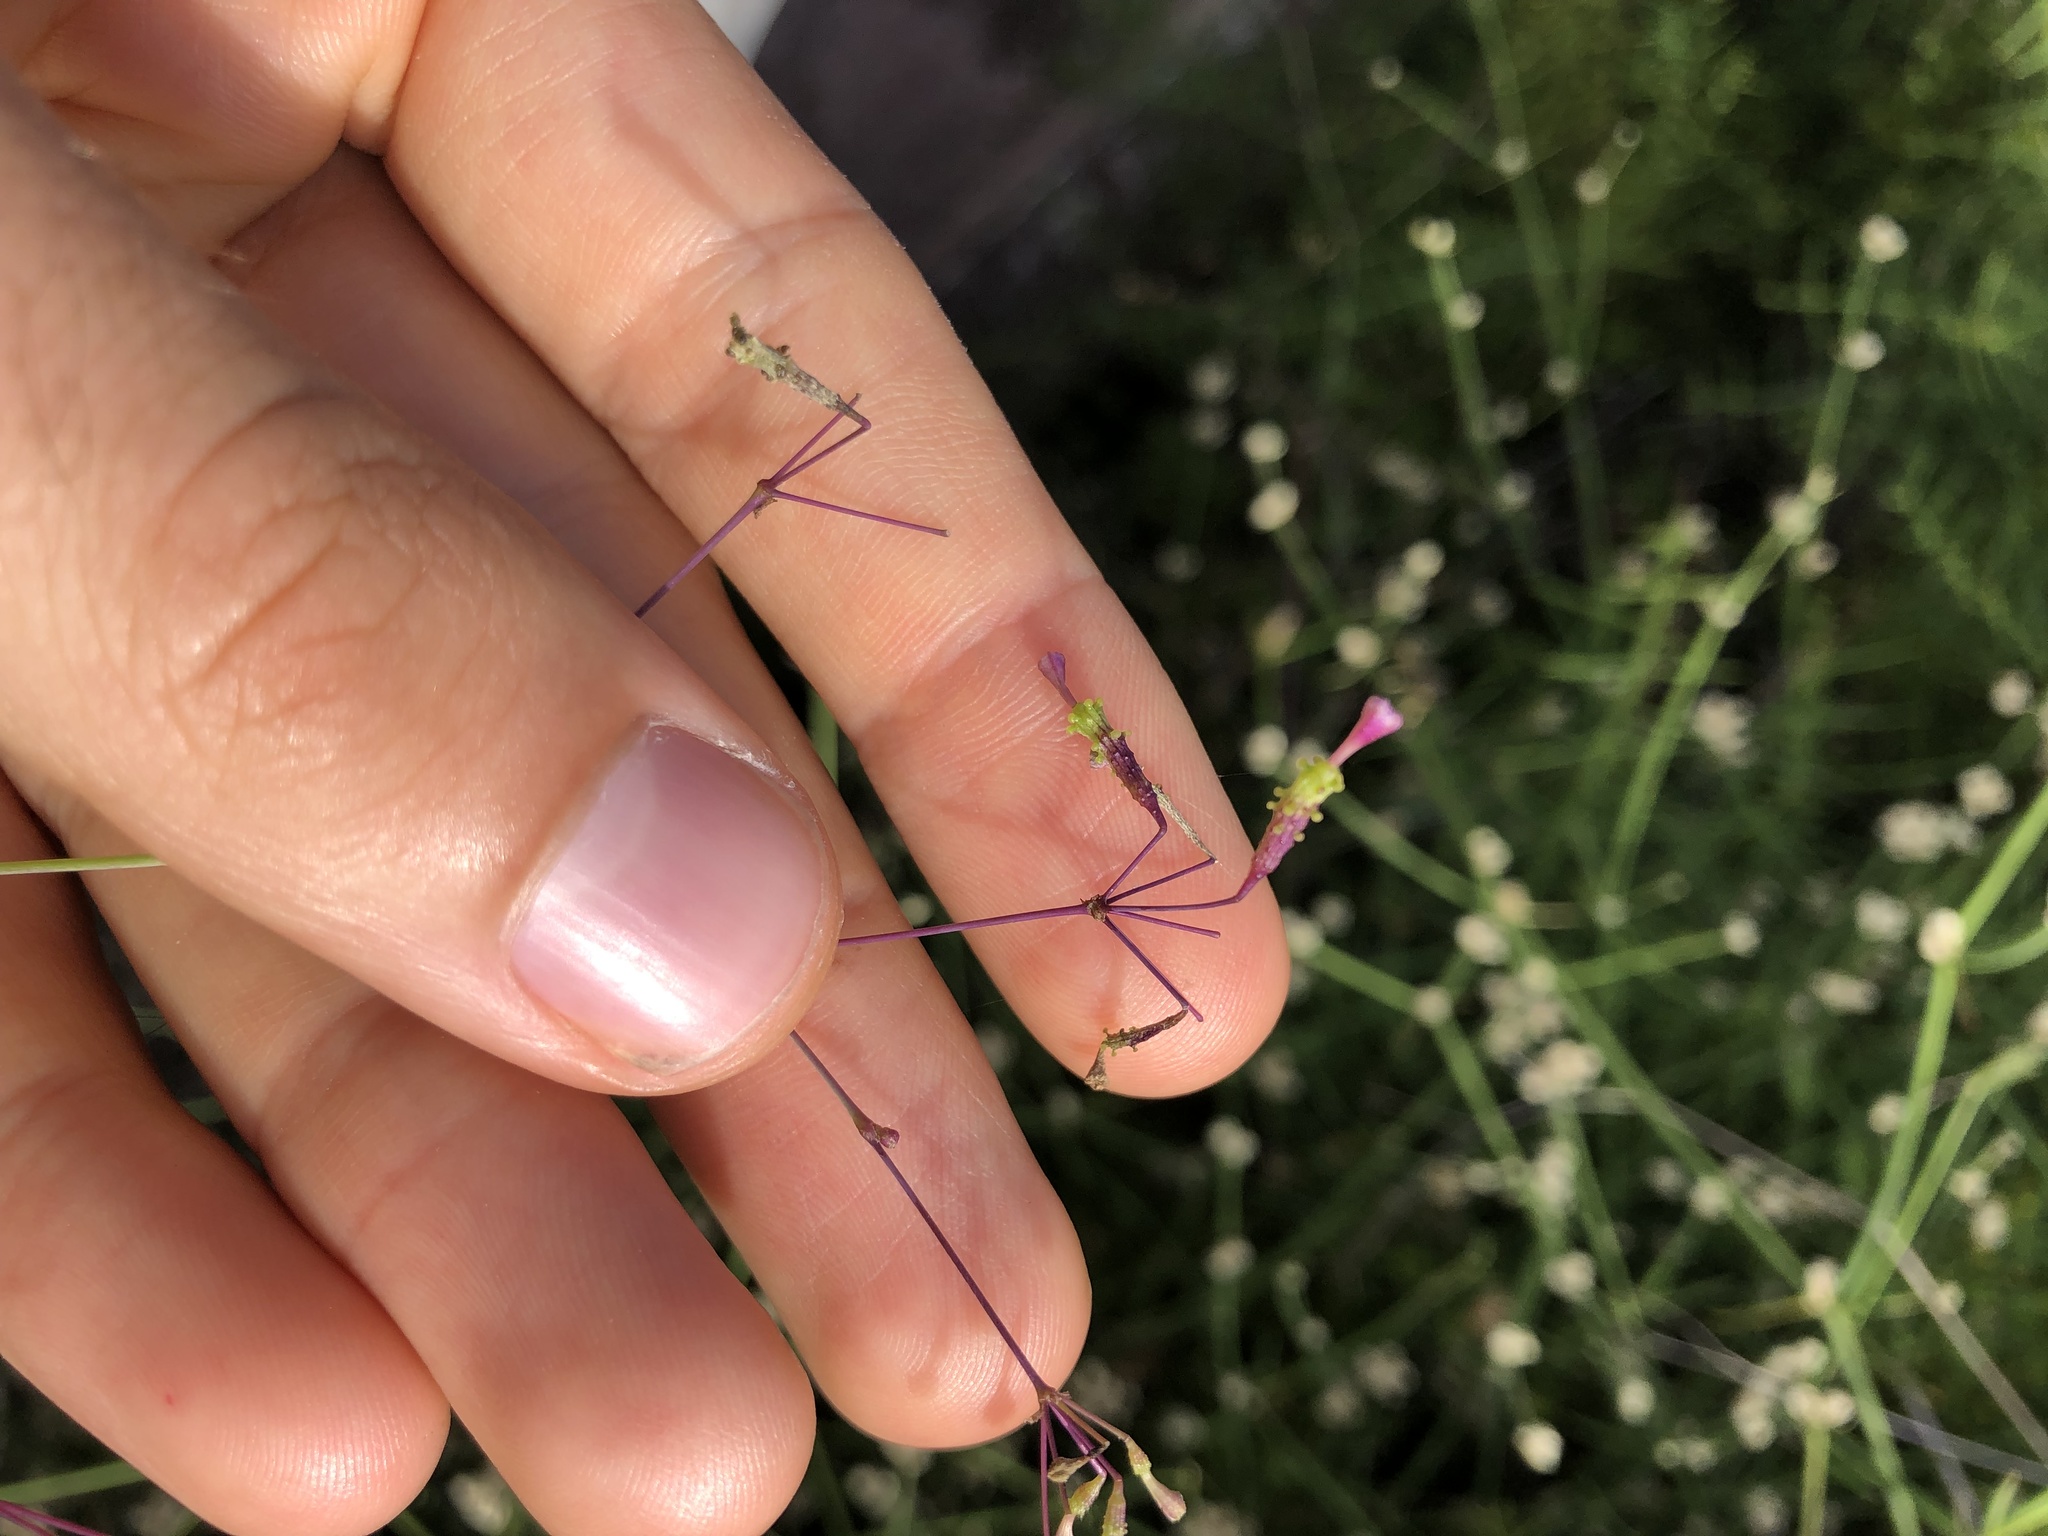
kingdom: Plantae
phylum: Tracheophyta
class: Magnoliopsida
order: Caryophyllales
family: Nyctaginaceae
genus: Commicarpus
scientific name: Commicarpus tuberosus
